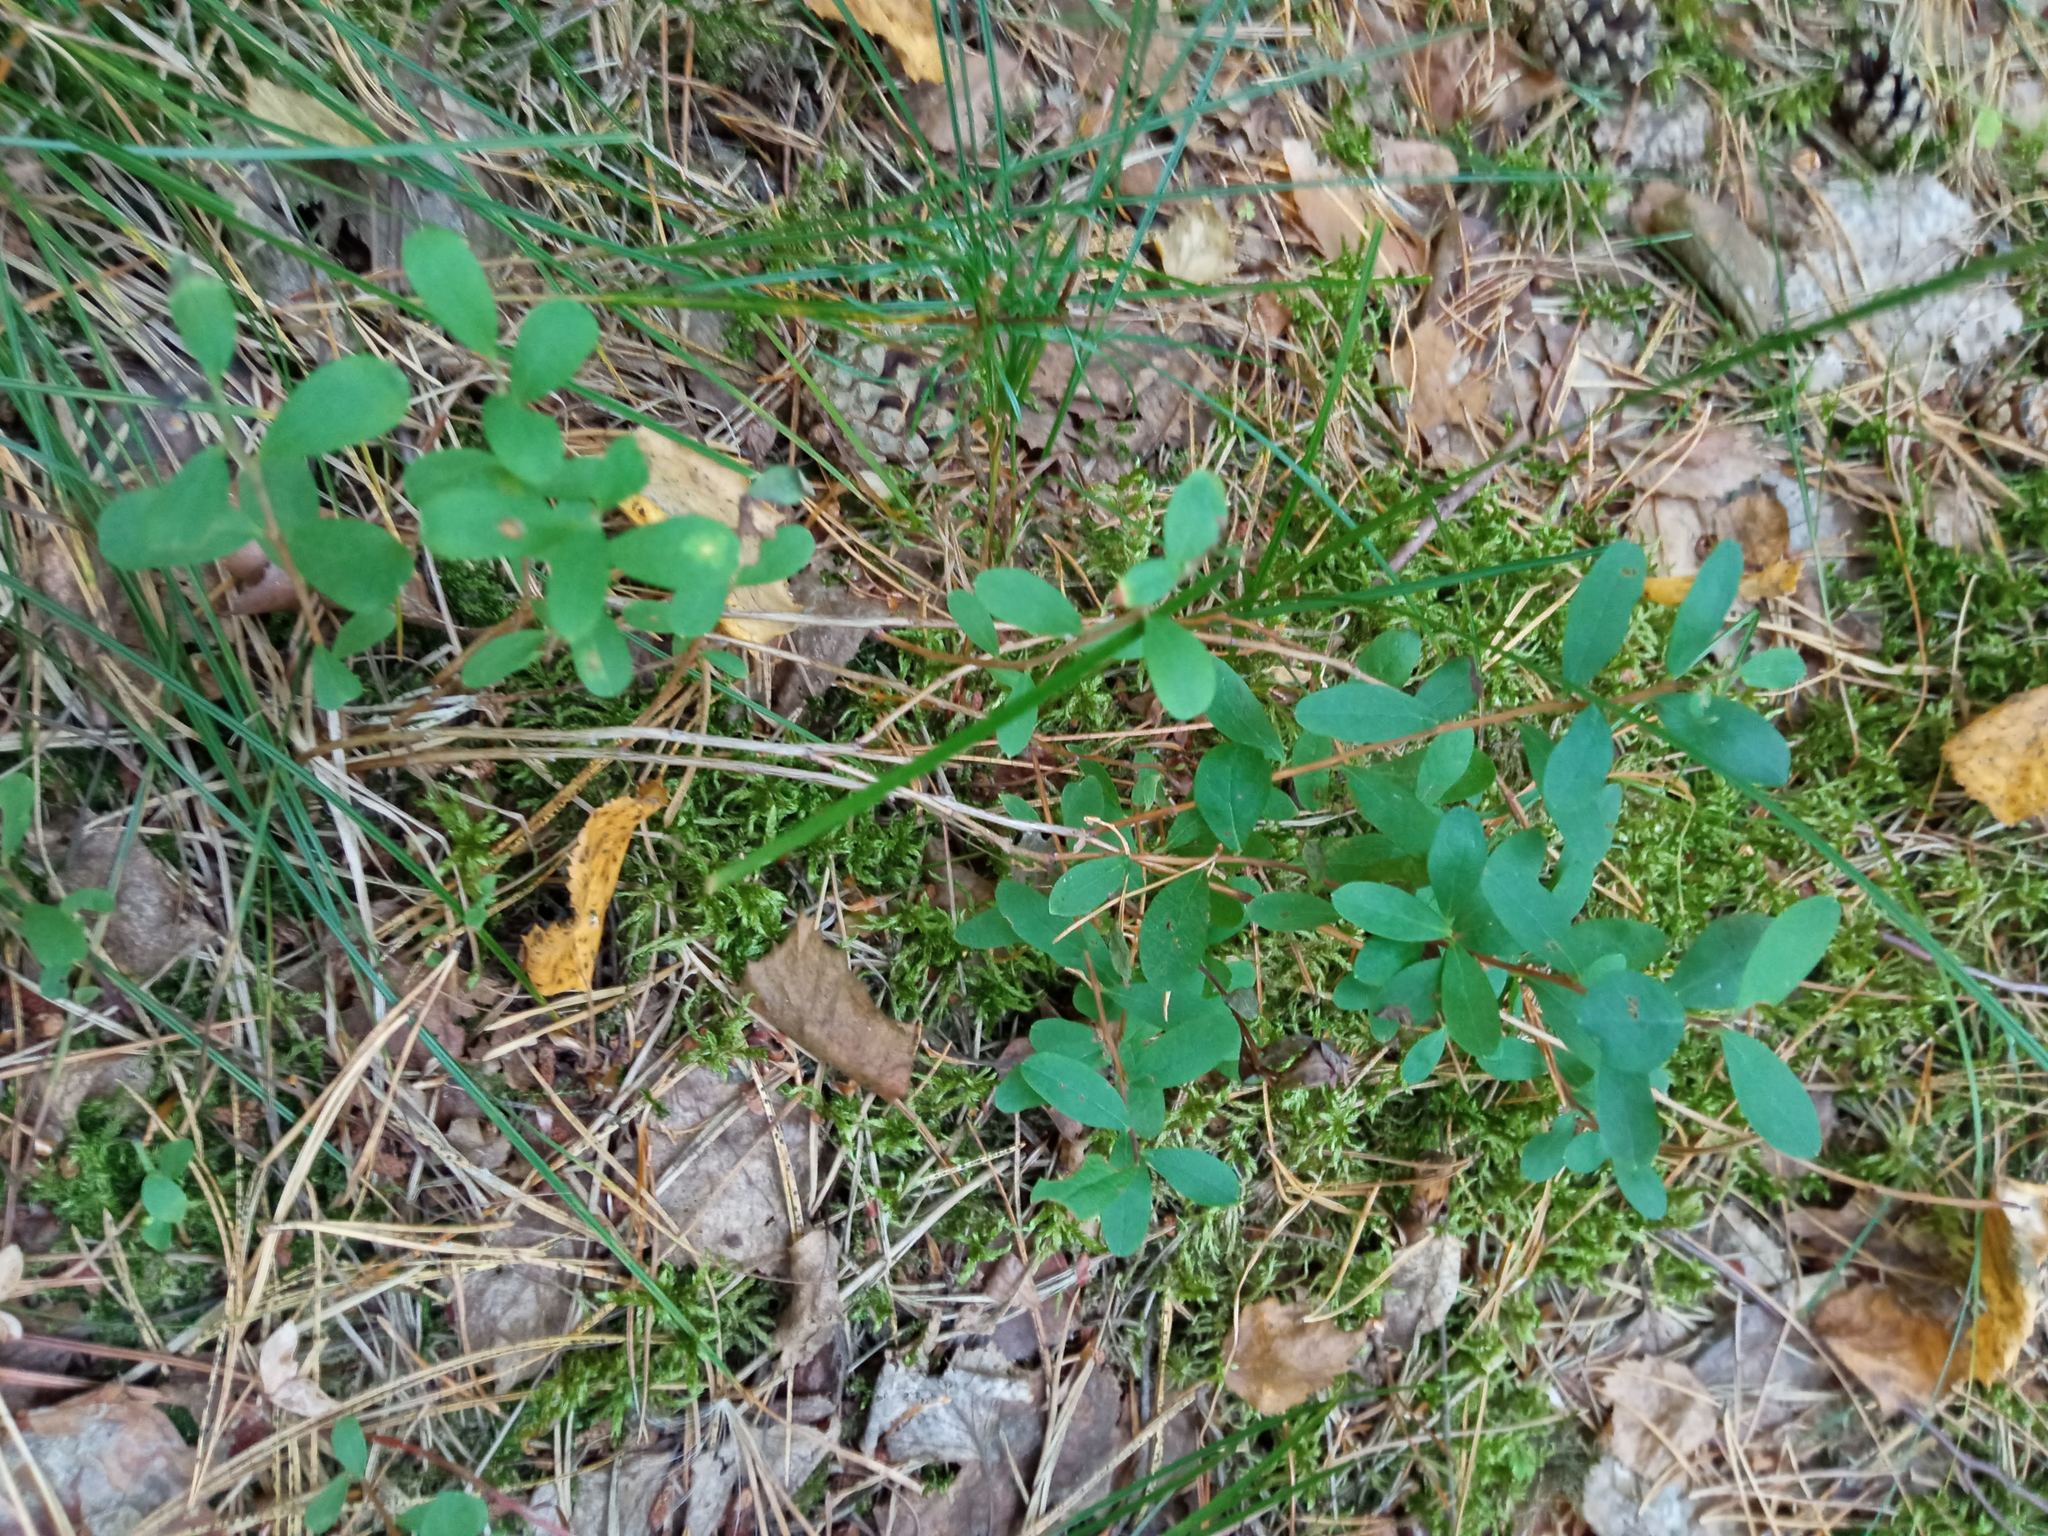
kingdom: Plantae
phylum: Tracheophyta
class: Magnoliopsida
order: Ericales
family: Ericaceae
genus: Vaccinium
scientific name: Vaccinium uliginosum
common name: Bog bilberry
